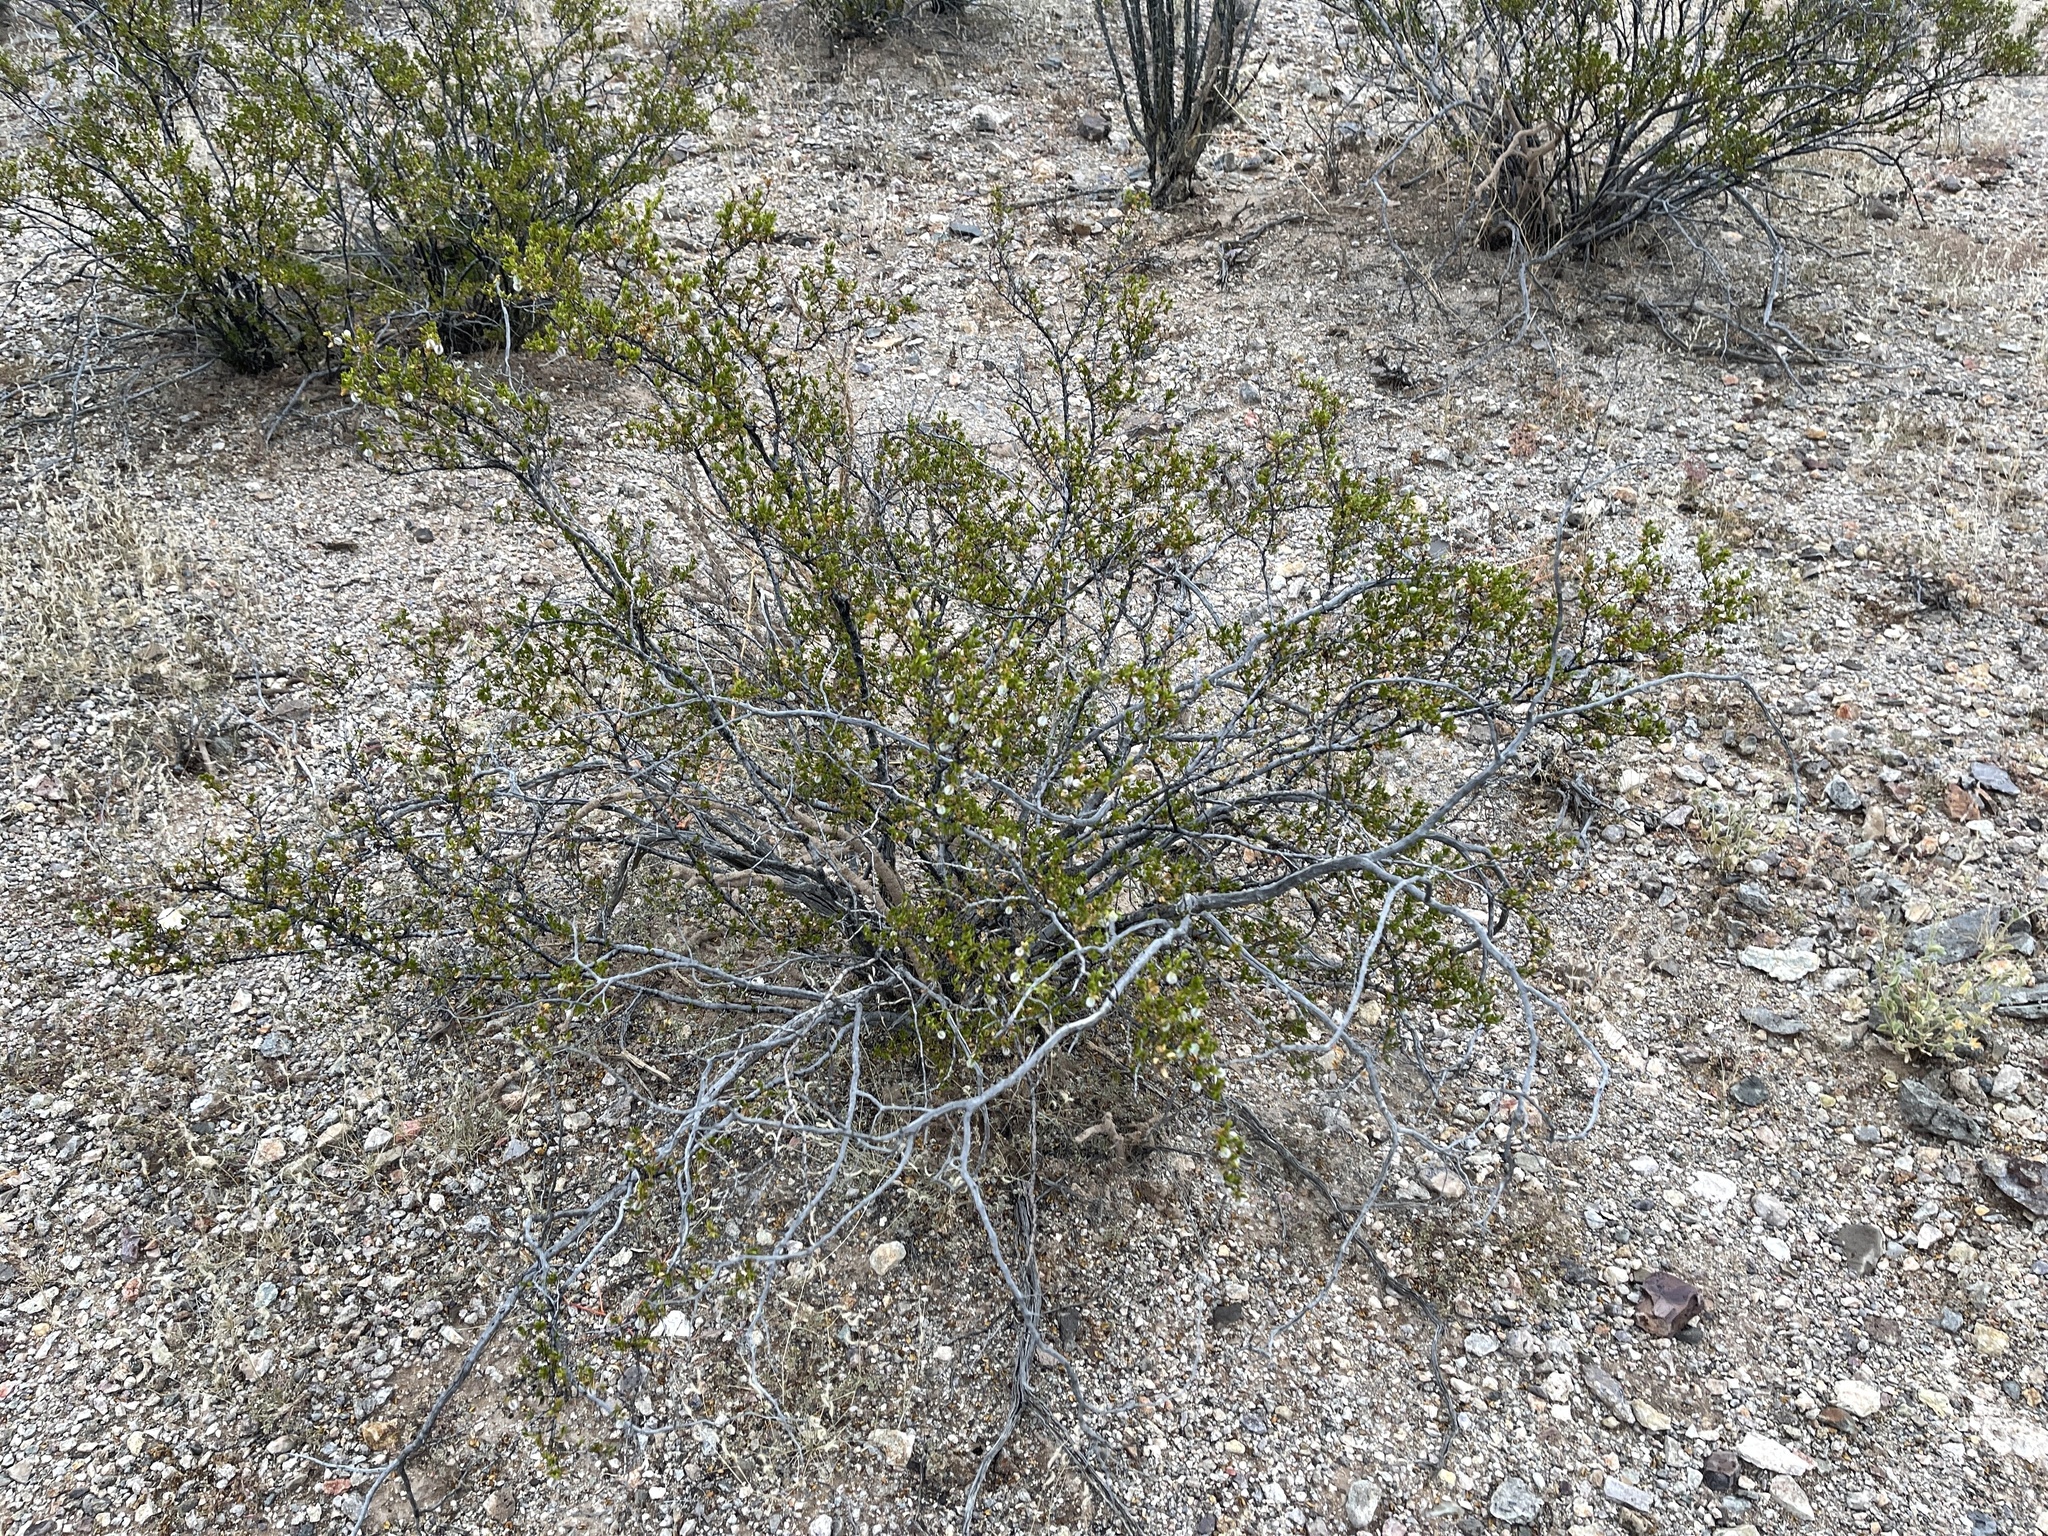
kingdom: Plantae
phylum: Tracheophyta
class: Magnoliopsida
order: Zygophyllales
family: Zygophyllaceae
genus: Larrea
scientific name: Larrea tridentata
